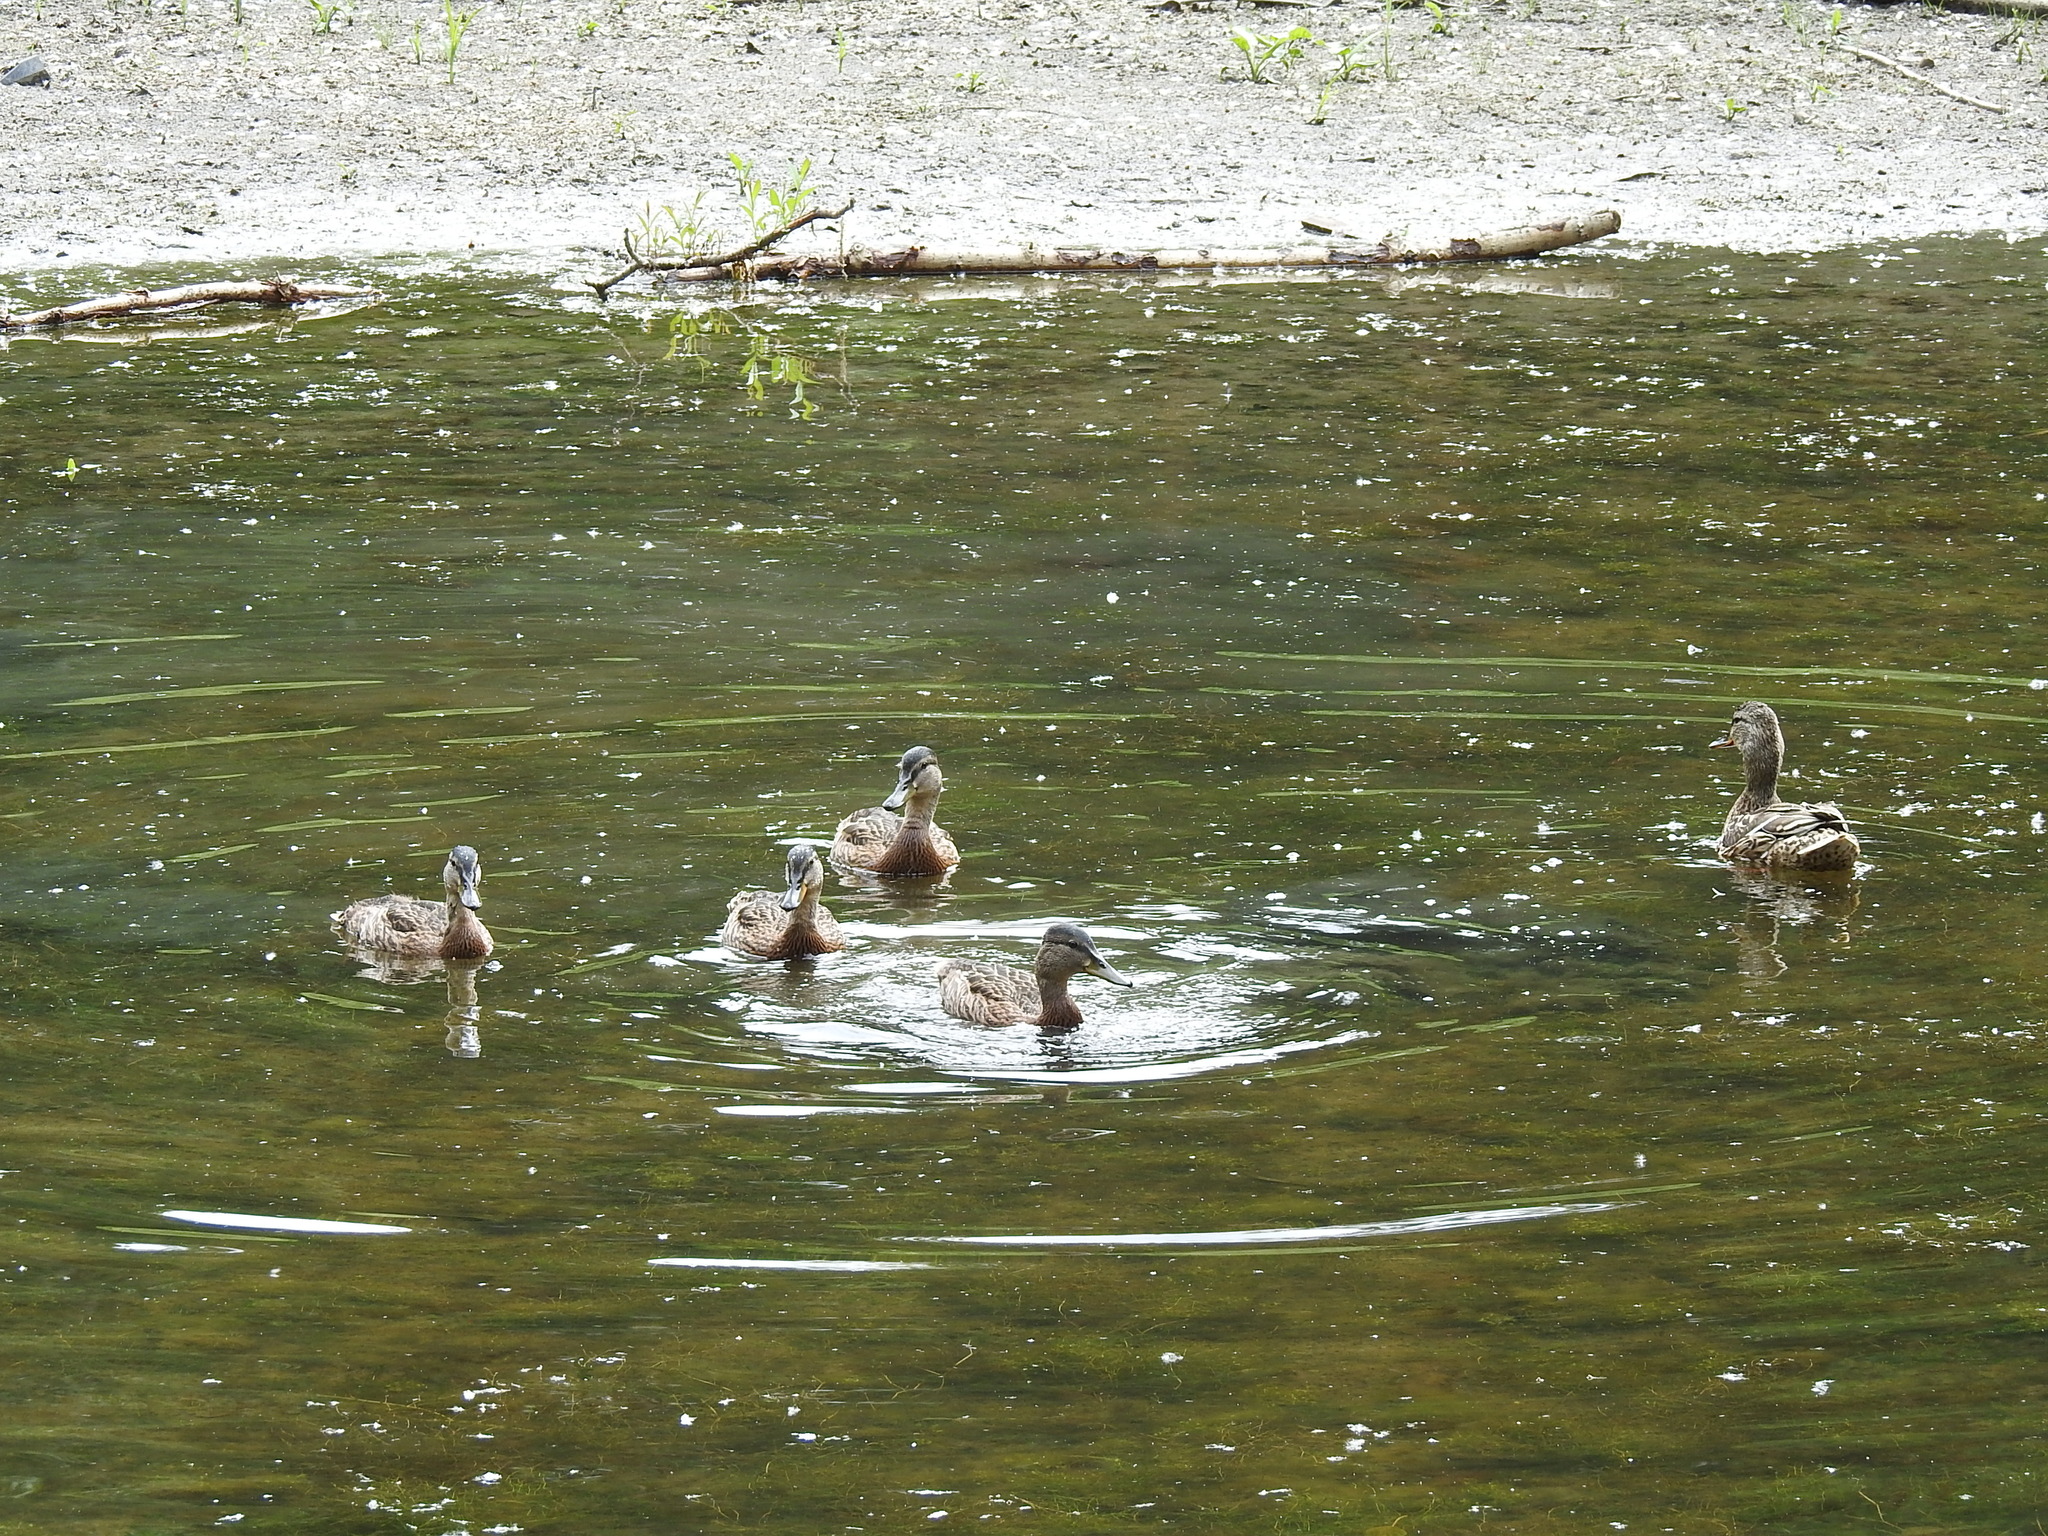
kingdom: Animalia
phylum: Chordata
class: Aves
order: Anseriformes
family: Anatidae
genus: Anas
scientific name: Anas platyrhynchos
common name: Mallard
